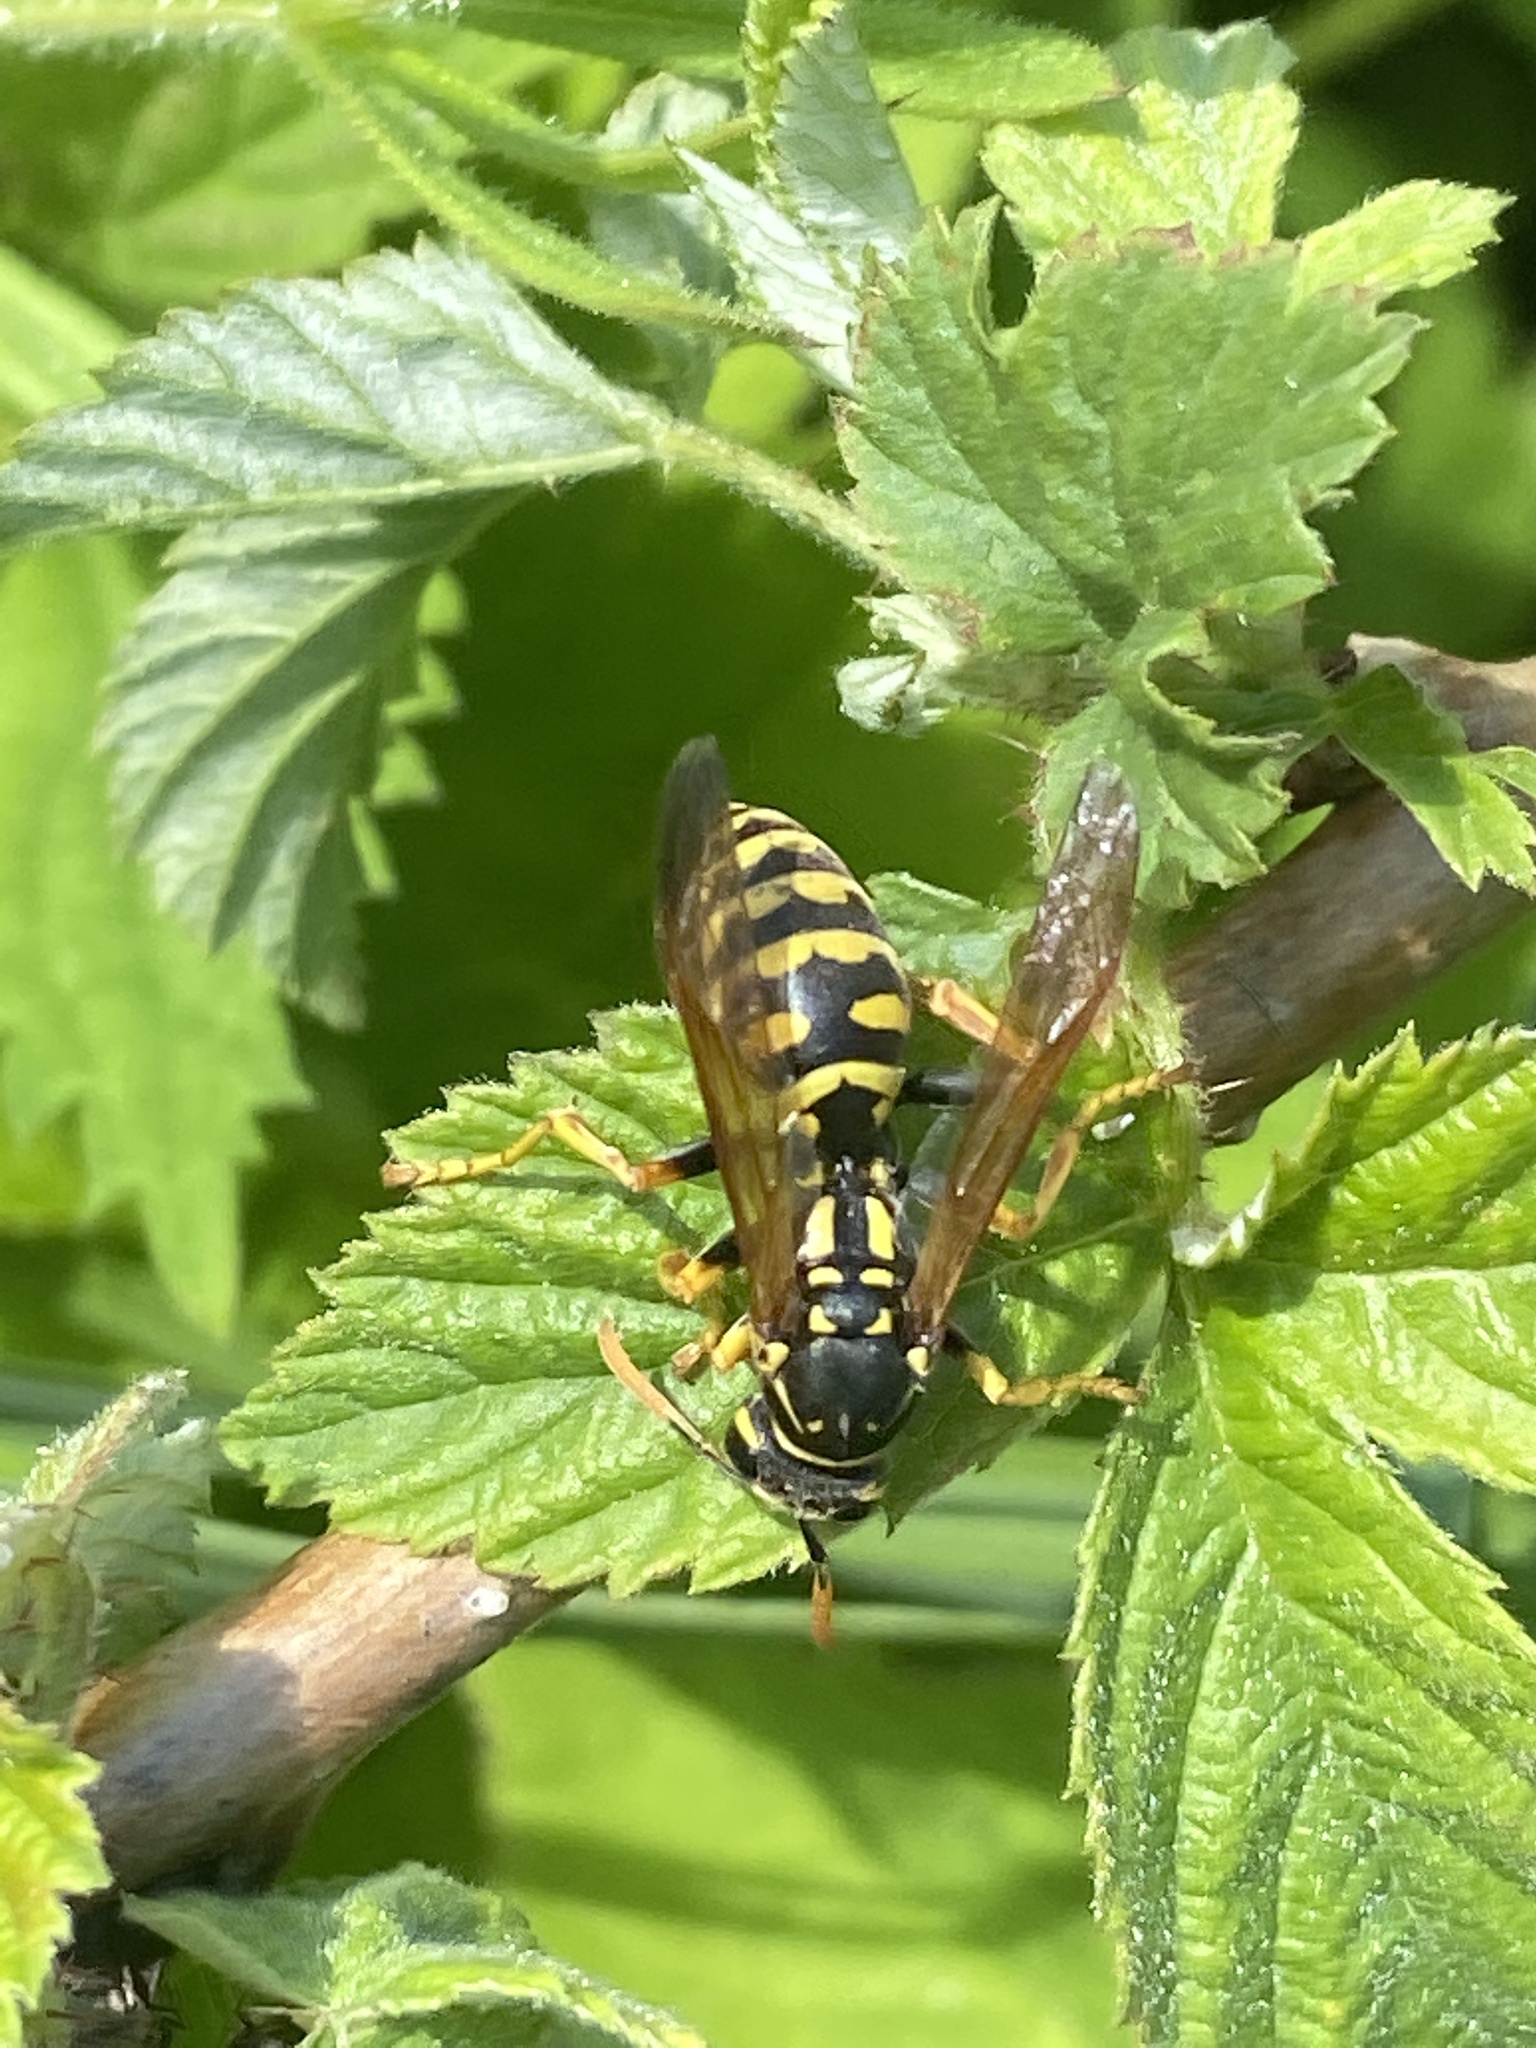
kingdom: Animalia
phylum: Arthropoda
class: Insecta
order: Hymenoptera
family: Eumenidae
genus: Polistes
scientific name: Polistes dominula
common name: Paper wasp
